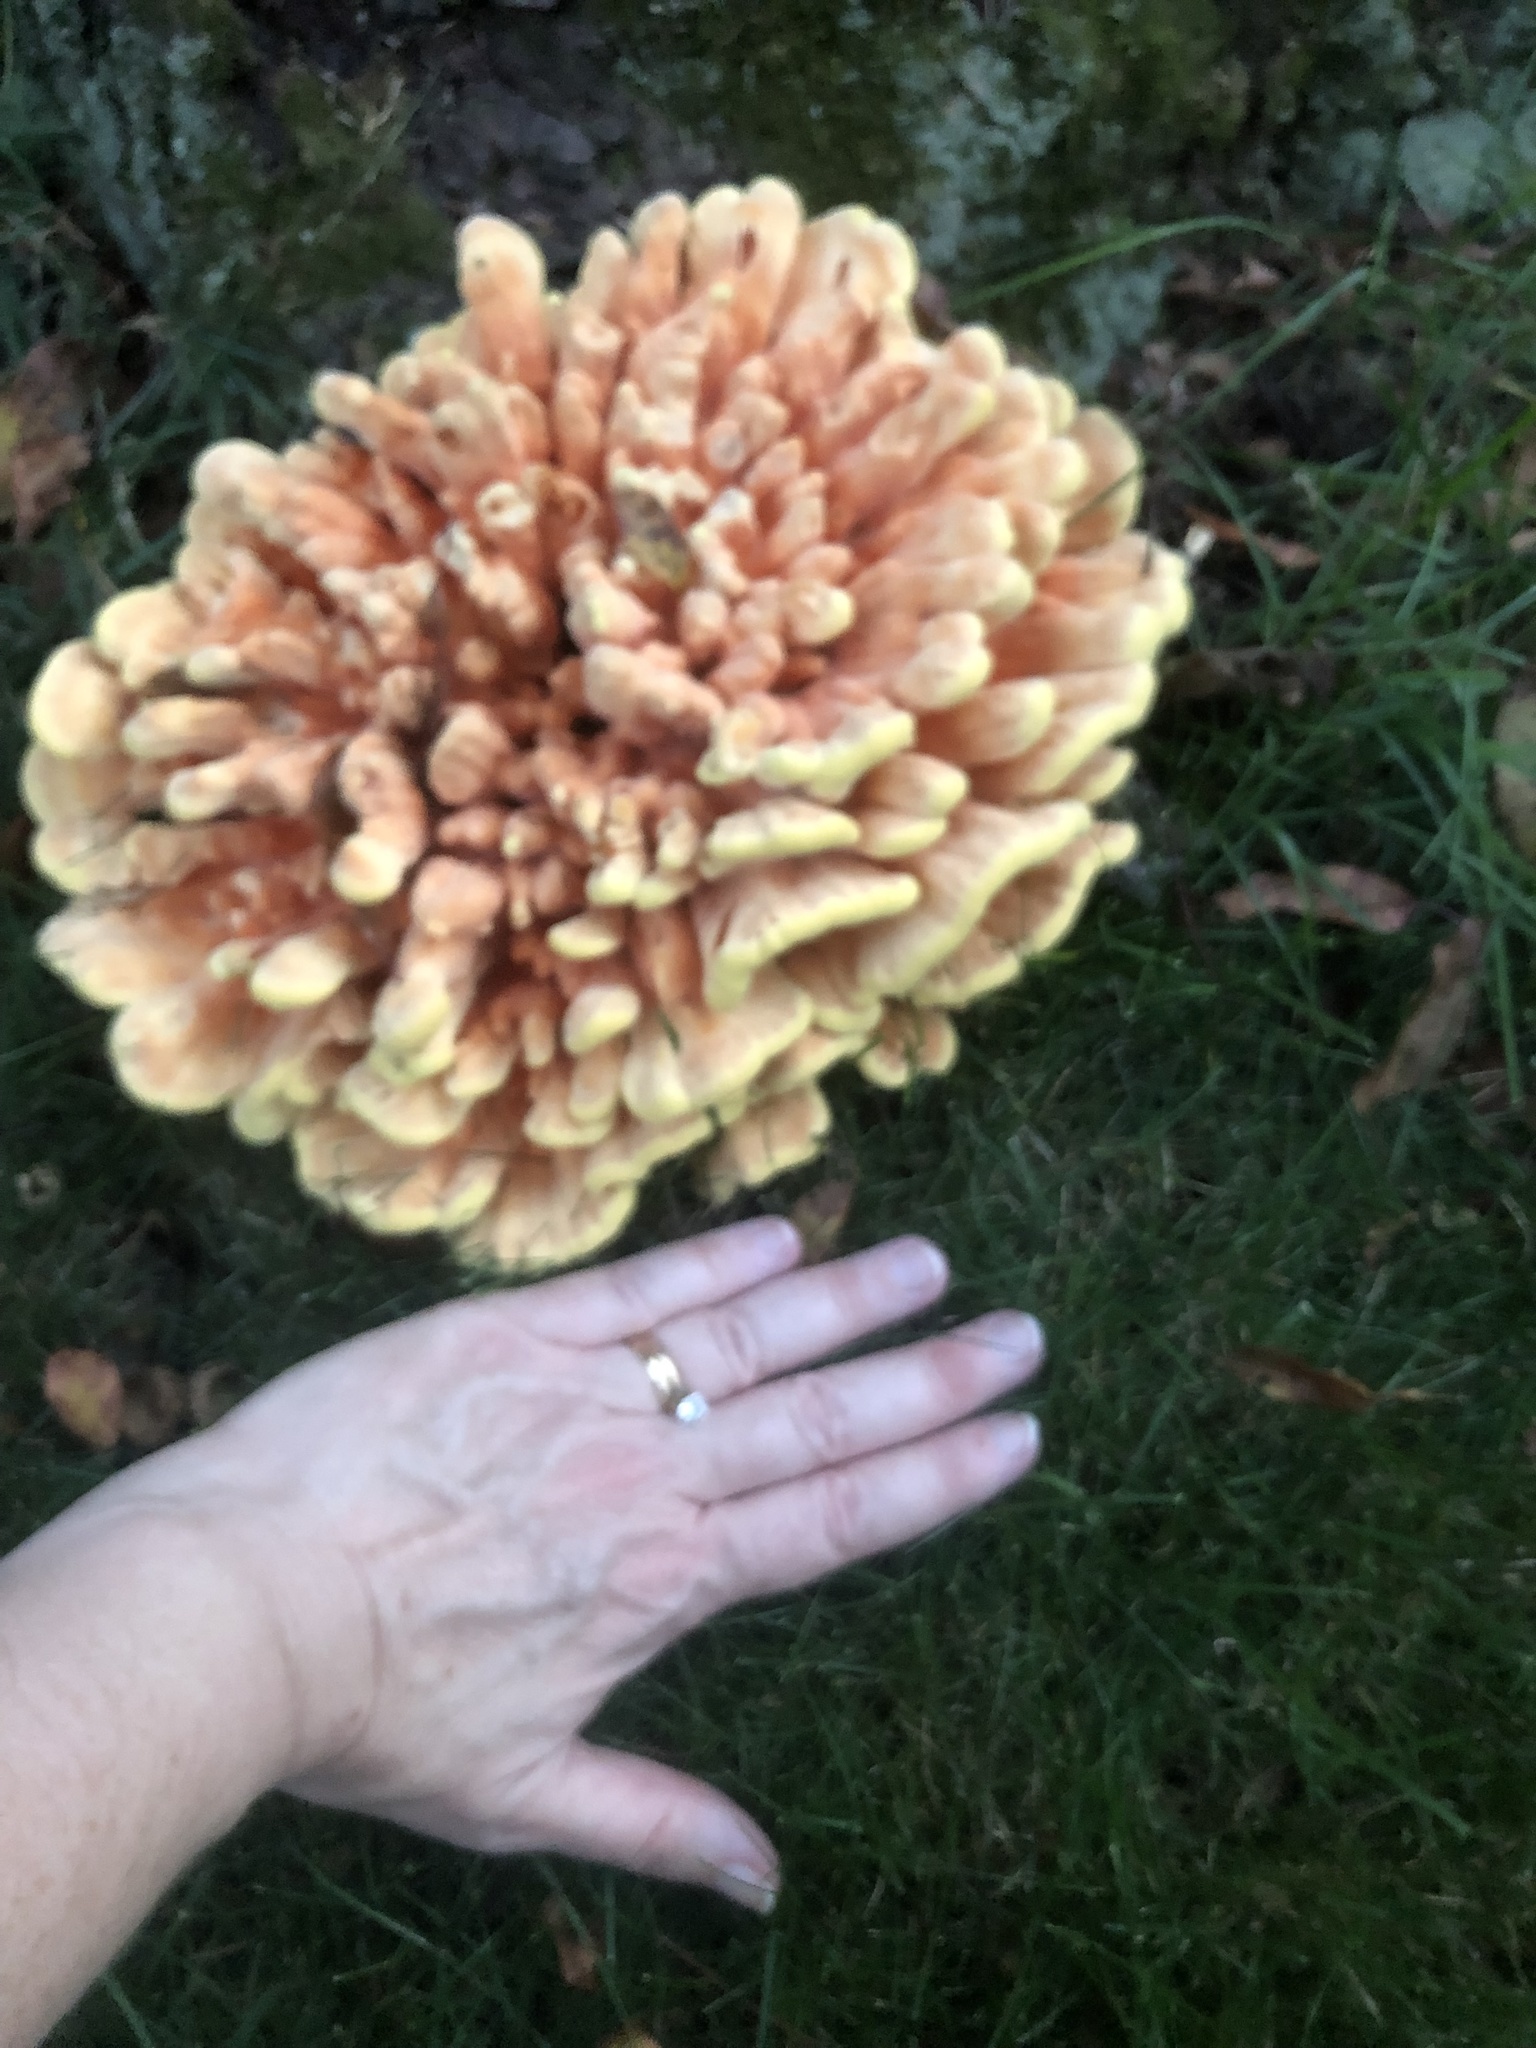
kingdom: Fungi
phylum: Basidiomycota
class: Agaricomycetes
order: Polyporales
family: Laetiporaceae
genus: Laetiporus
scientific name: Laetiporus sulphureus
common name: Chicken of the woods
